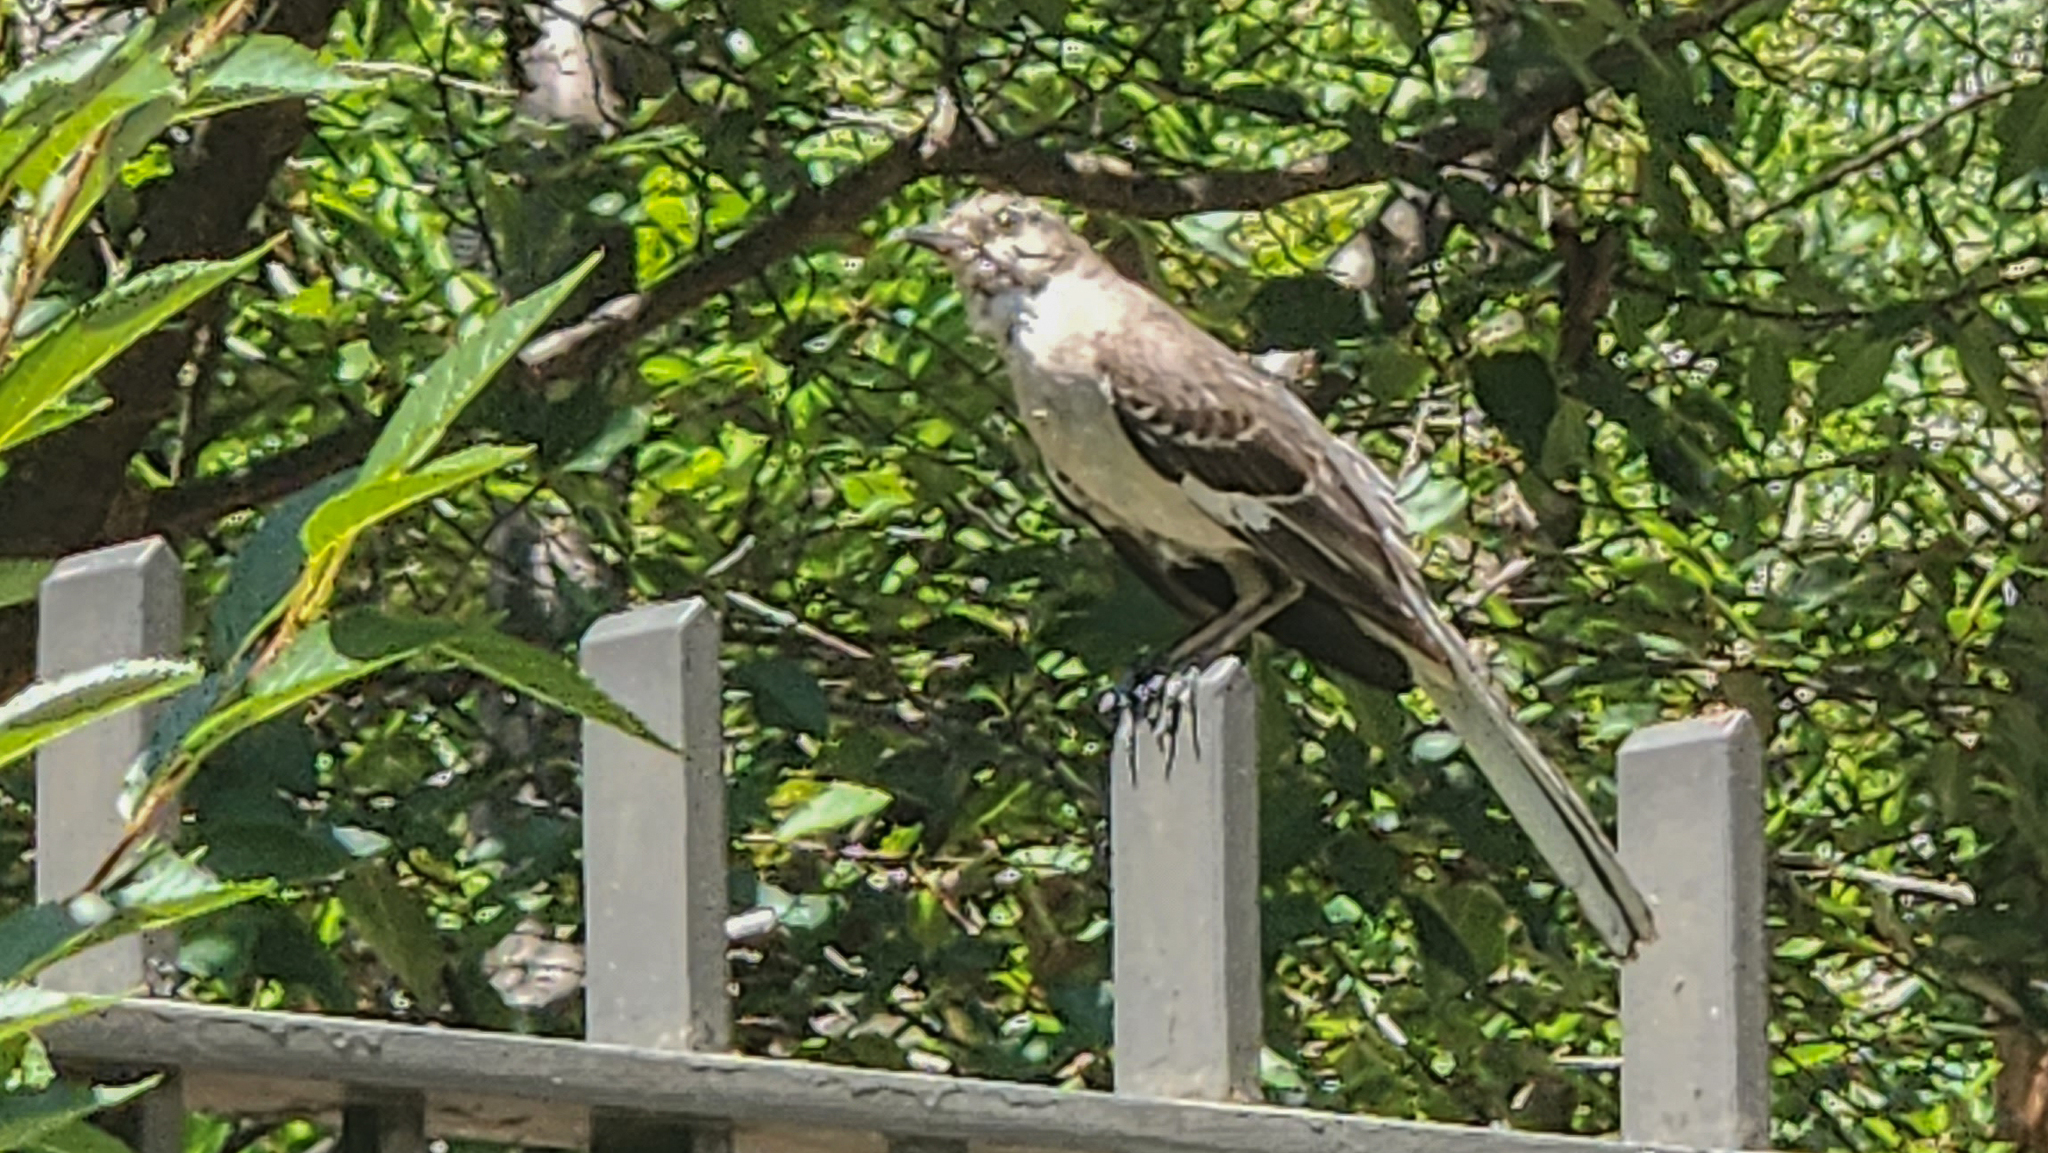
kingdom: Animalia
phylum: Chordata
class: Aves
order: Passeriformes
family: Mimidae
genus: Mimus
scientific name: Mimus polyglottos
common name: Northern mockingbird
